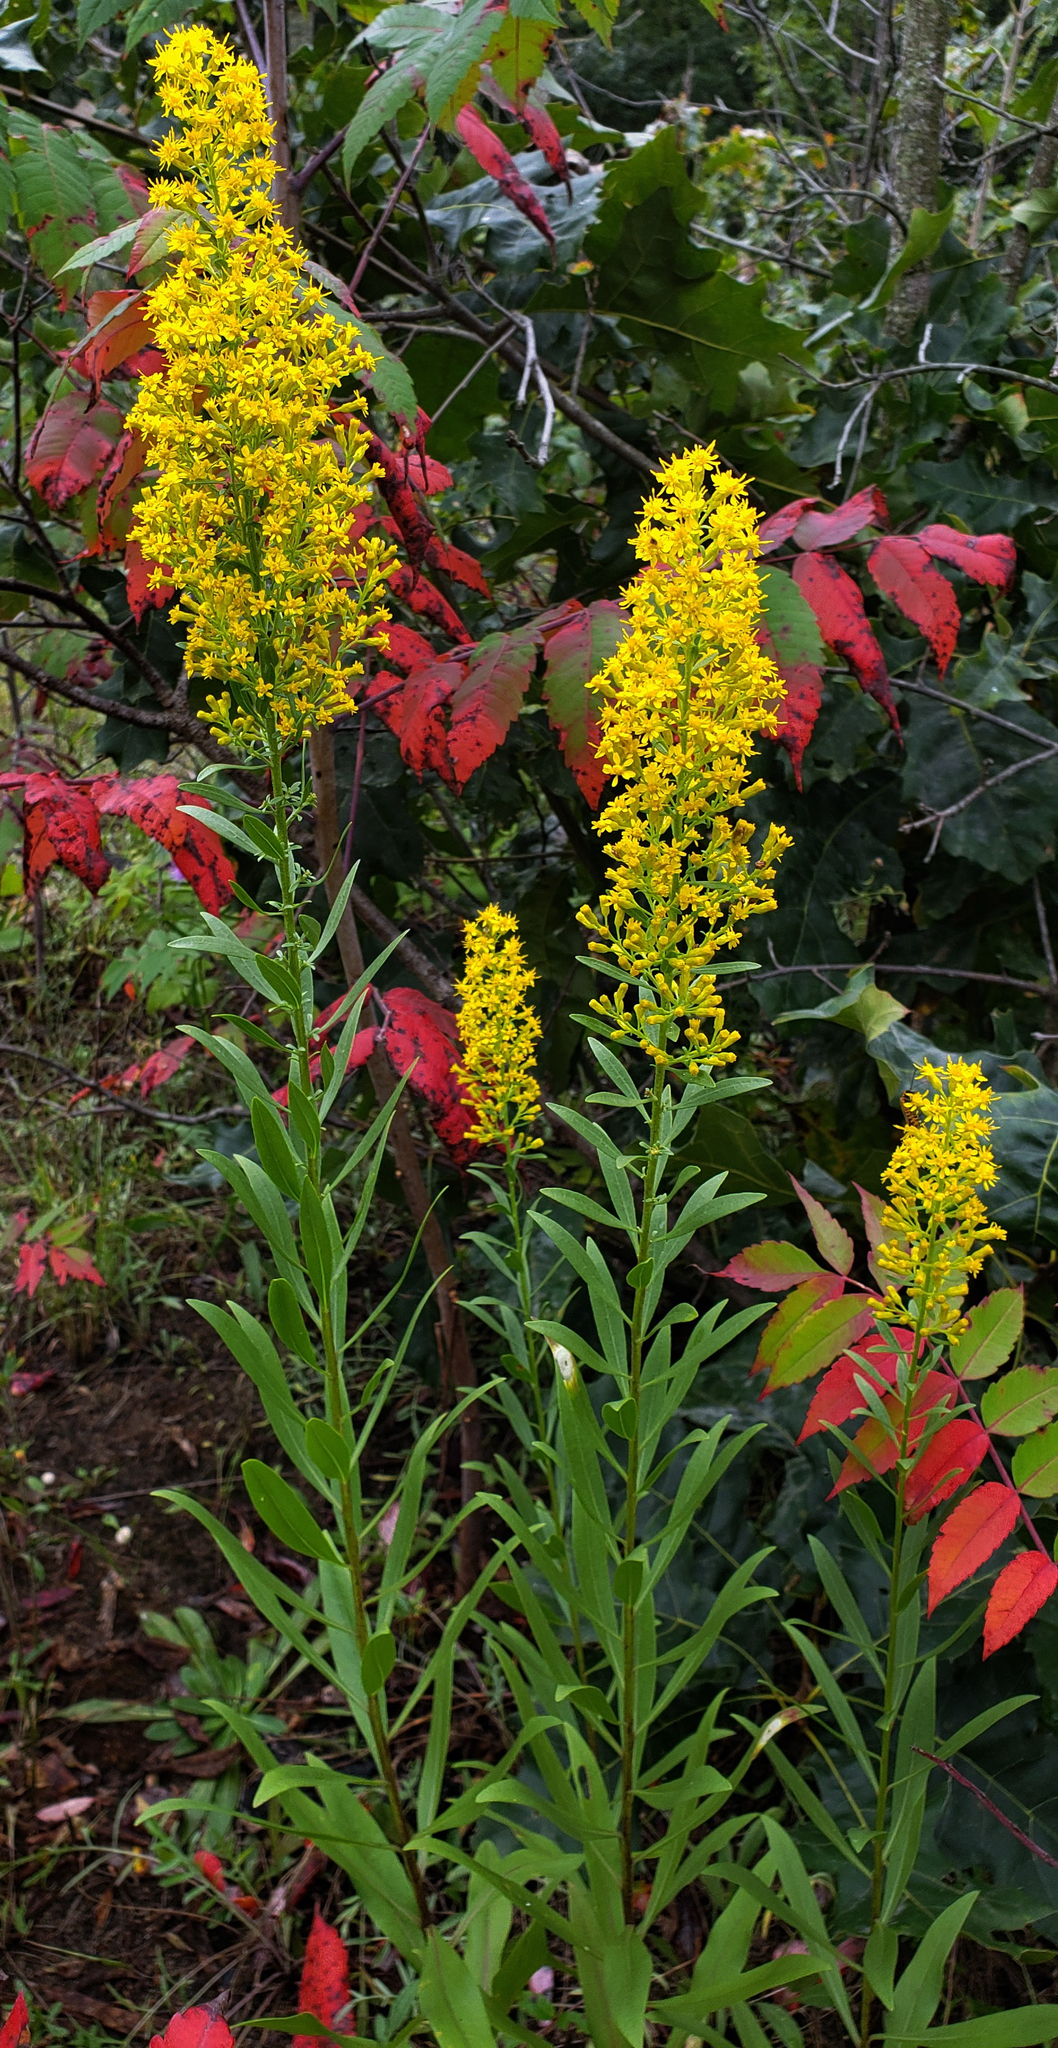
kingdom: Plantae
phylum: Tracheophyta
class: Magnoliopsida
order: Asterales
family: Asteraceae
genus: Solidago
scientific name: Solidago rigidiuscula
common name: Stiff-leaved showy goldenrod
